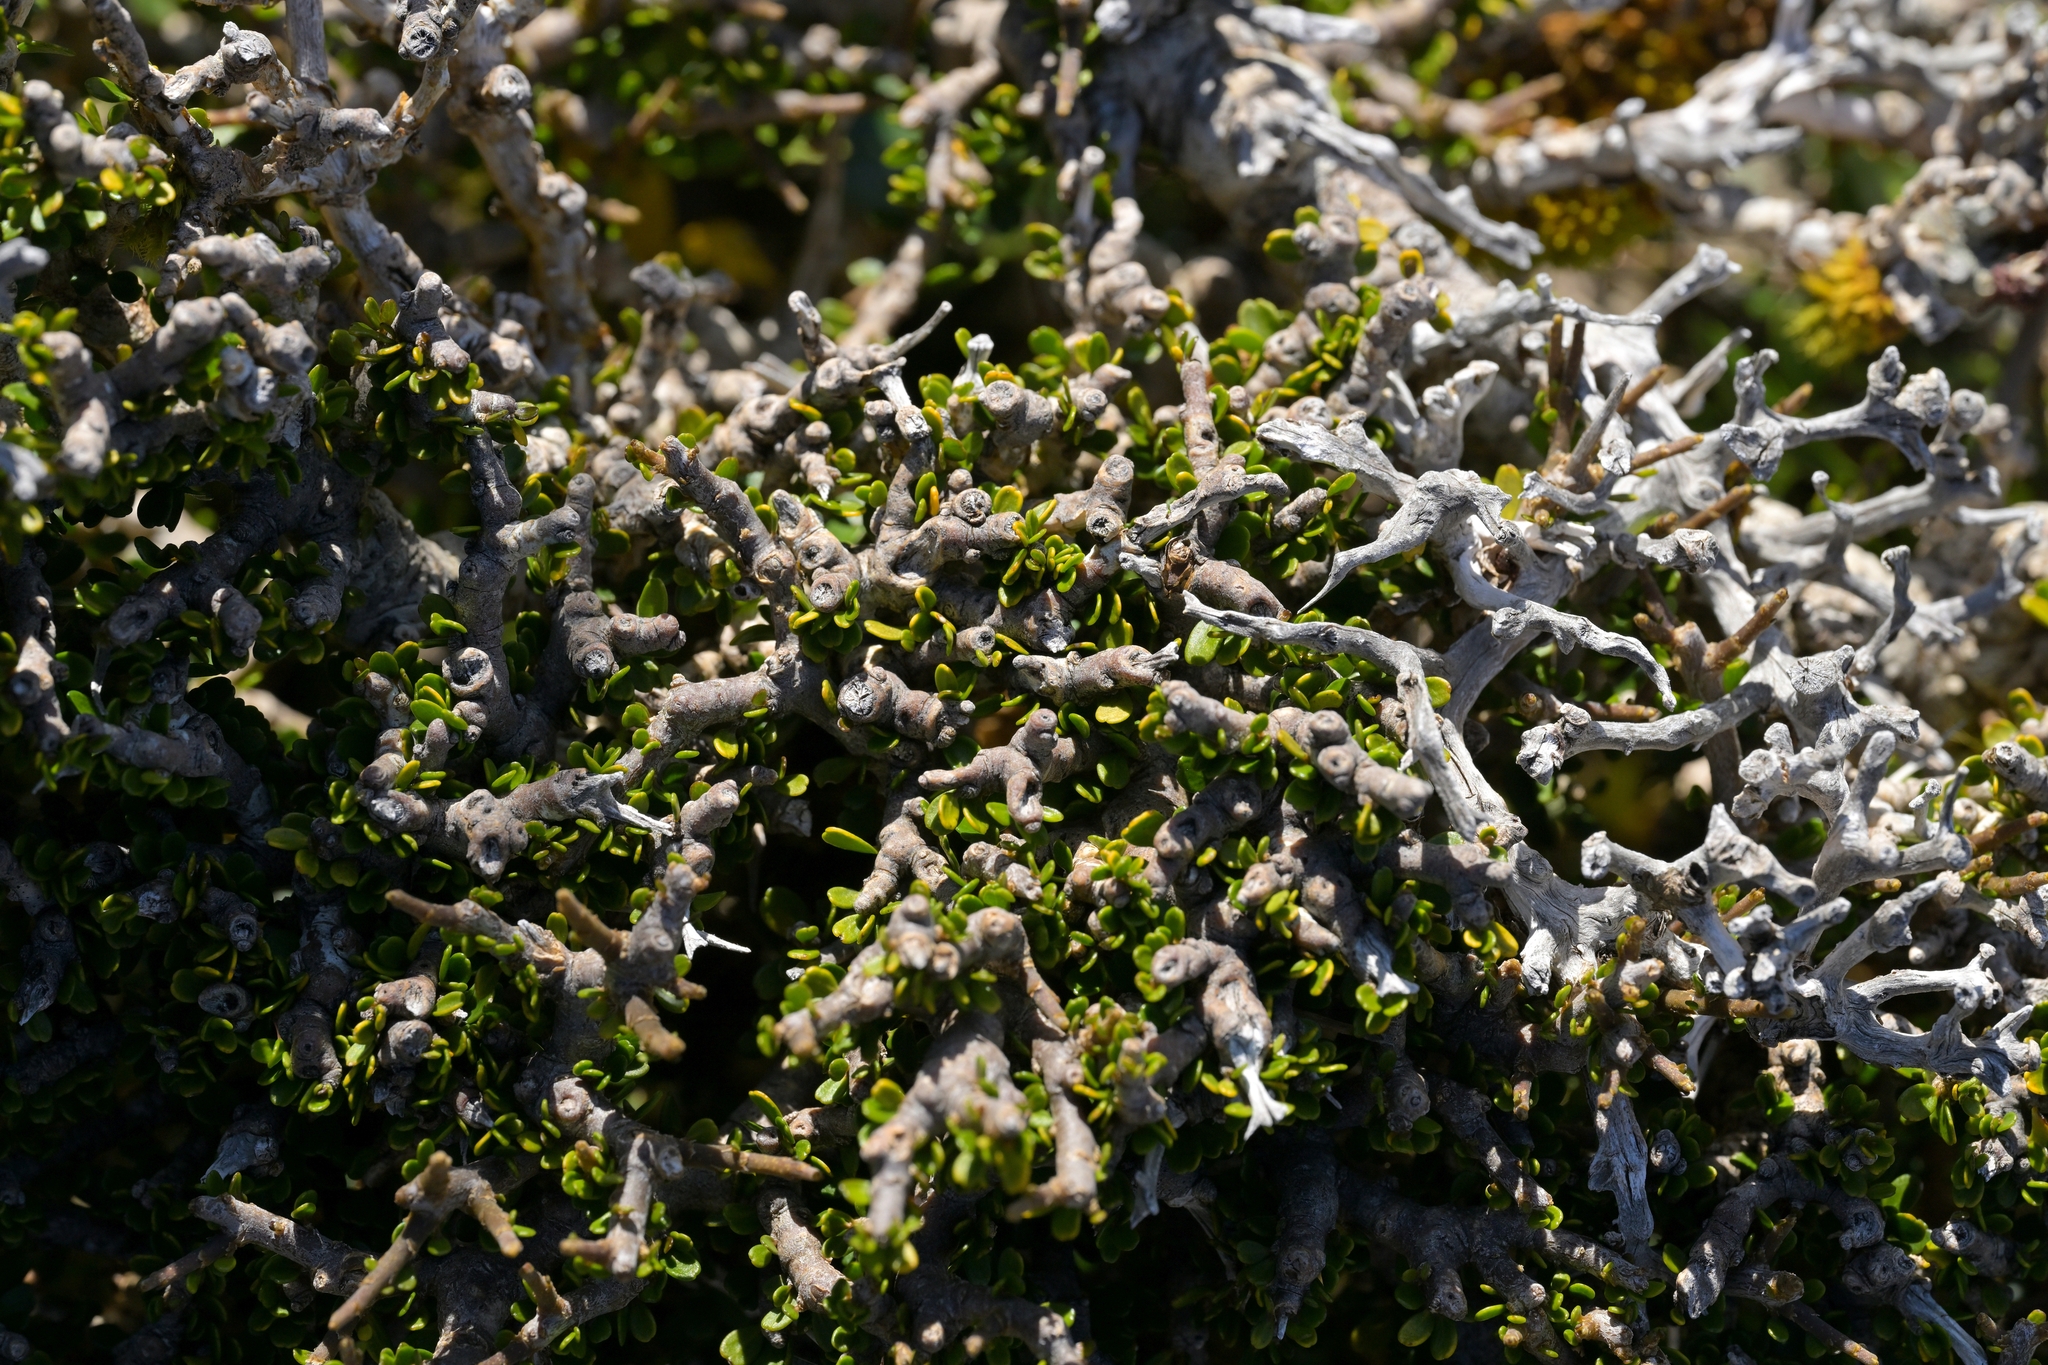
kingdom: Plantae
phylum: Tracheophyta
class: Magnoliopsida
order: Malpighiales
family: Violaceae
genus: Melicytus
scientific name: Melicytus alpinus
